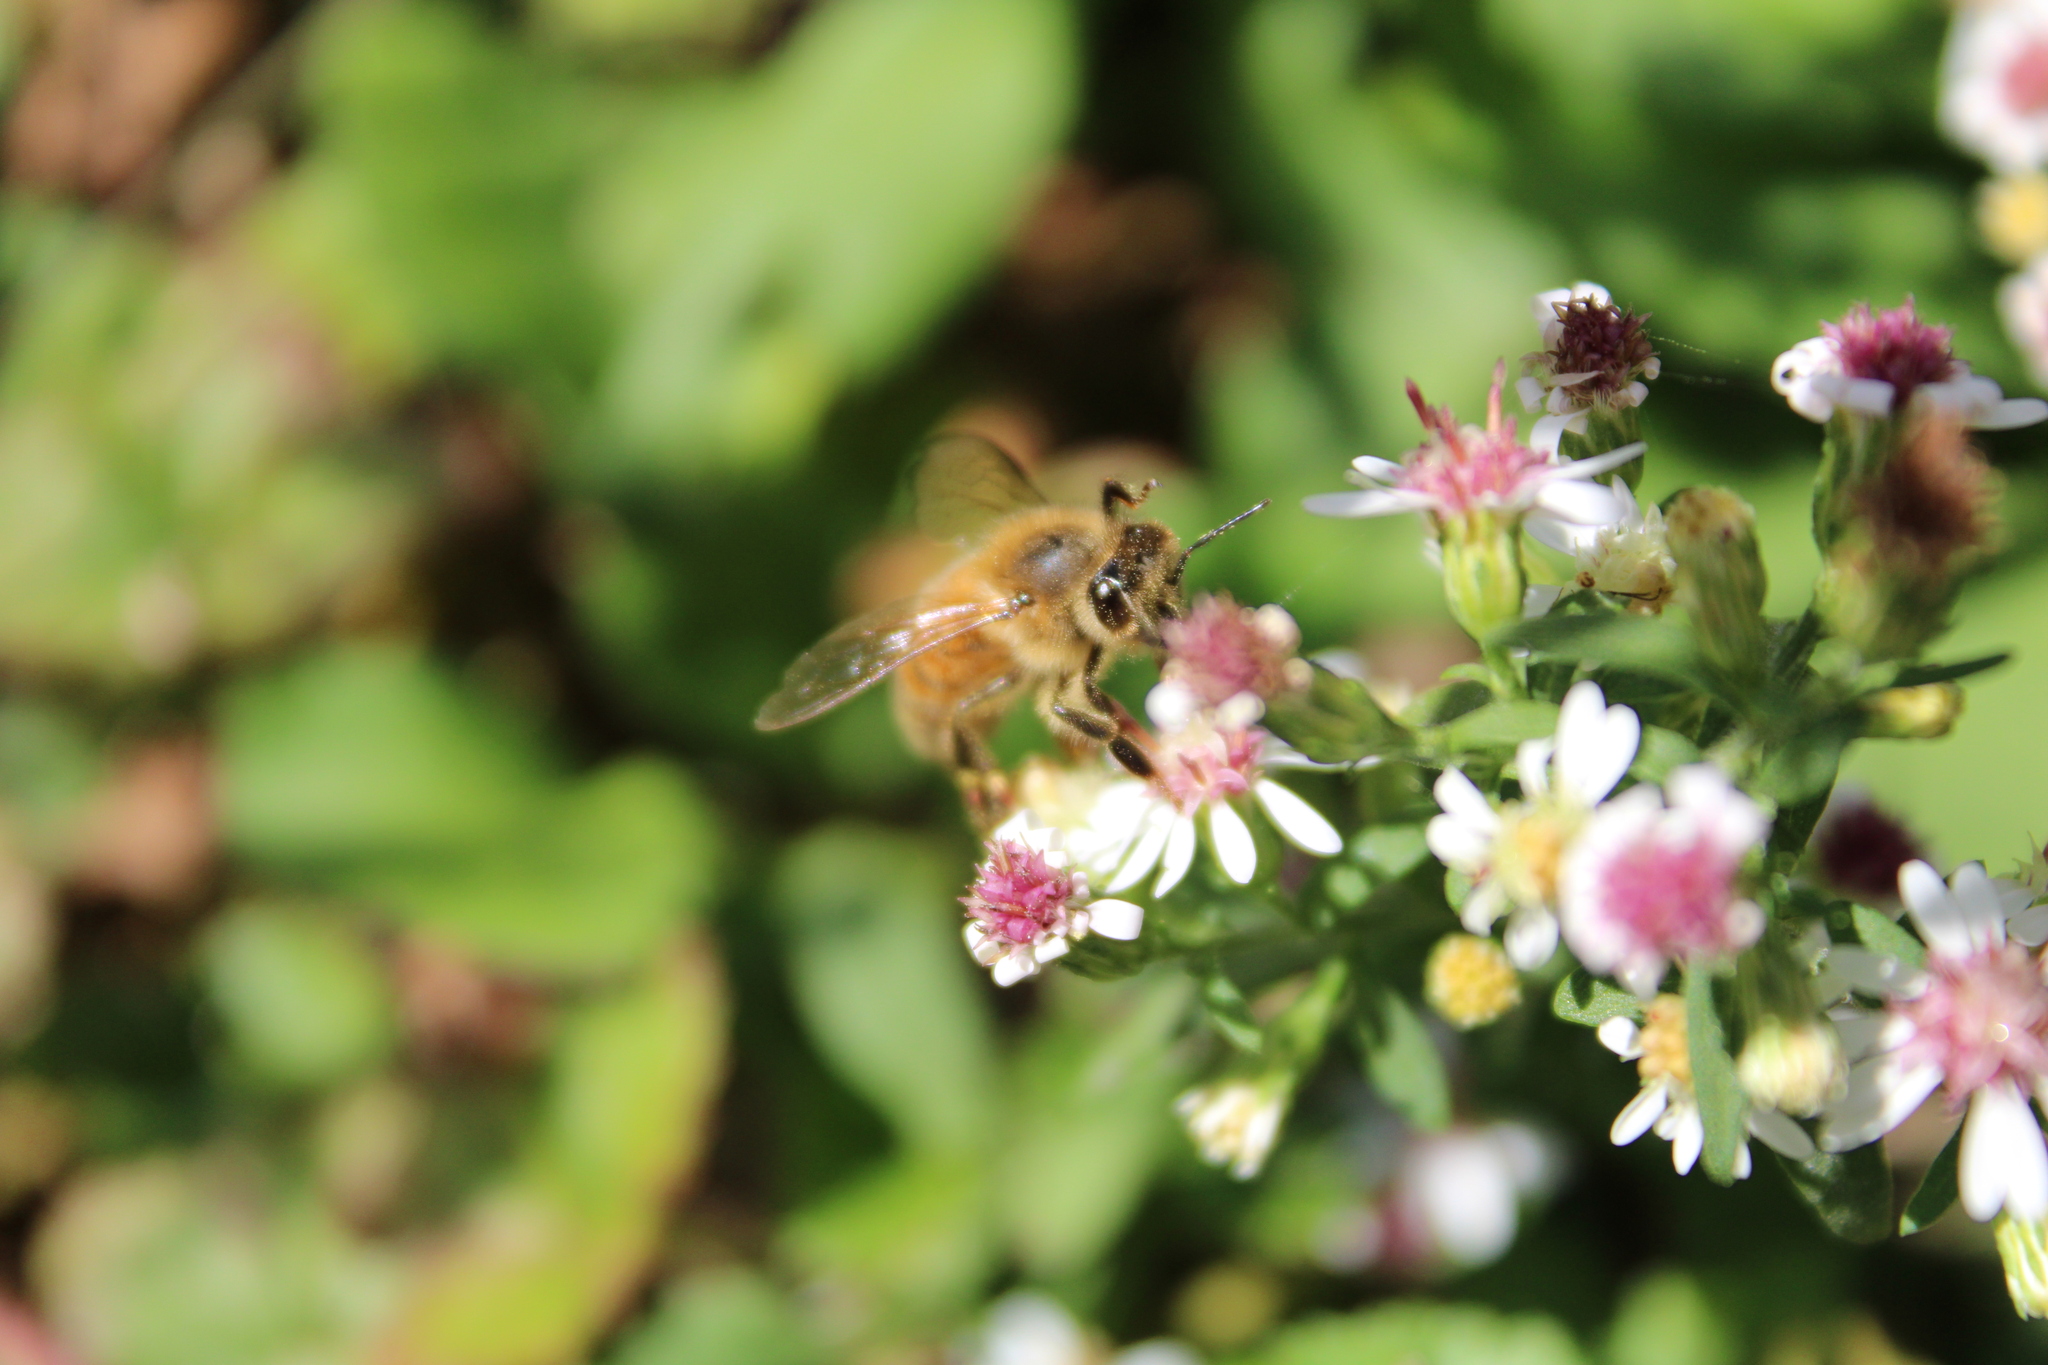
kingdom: Animalia
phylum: Arthropoda
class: Insecta
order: Hymenoptera
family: Apidae
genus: Apis
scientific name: Apis mellifera
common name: Honey bee
